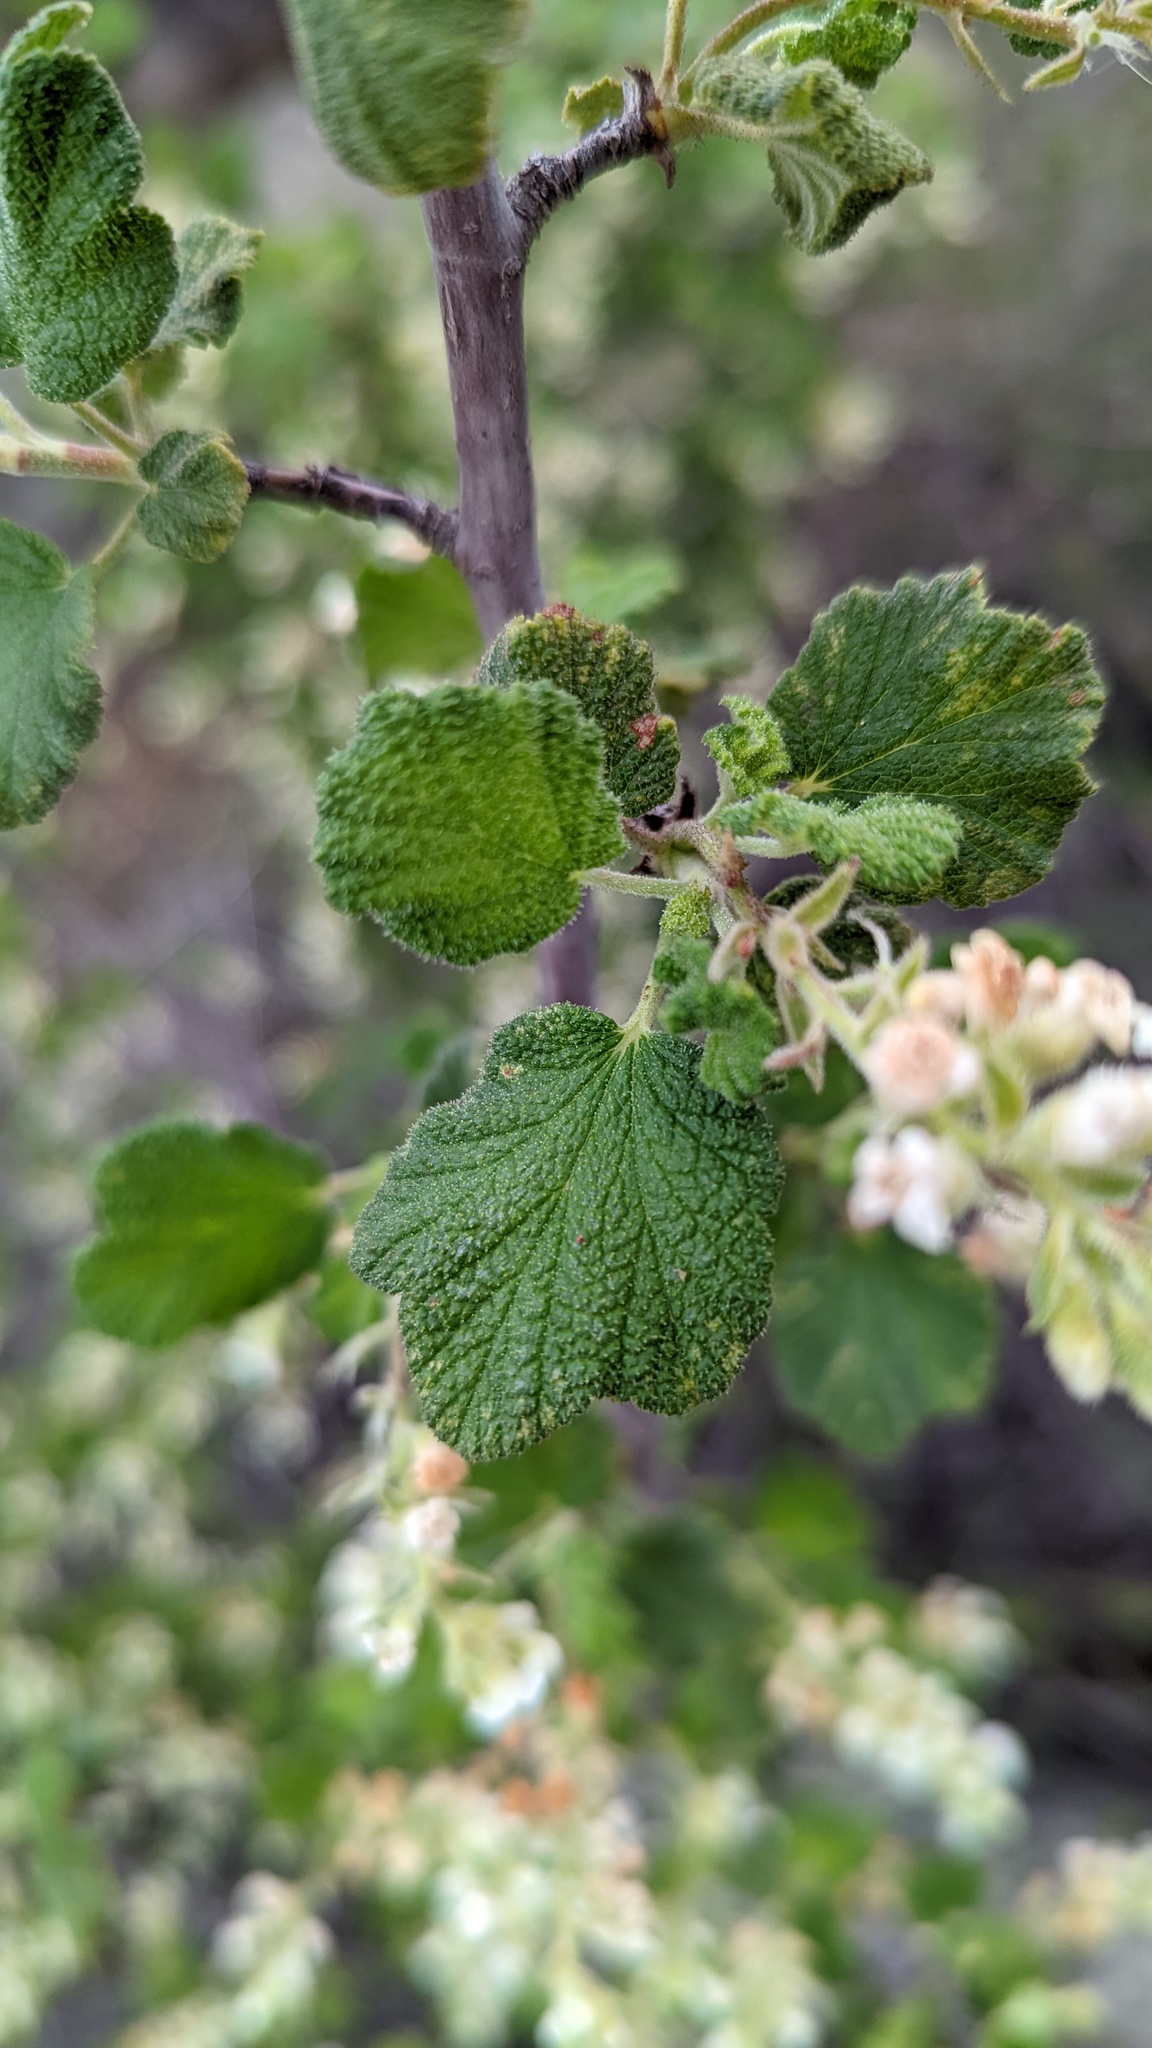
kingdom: Plantae
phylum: Tracheophyta
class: Magnoliopsida
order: Saxifragales
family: Grossulariaceae
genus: Ribes
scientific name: Ribes indecorum
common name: White-flower currant
